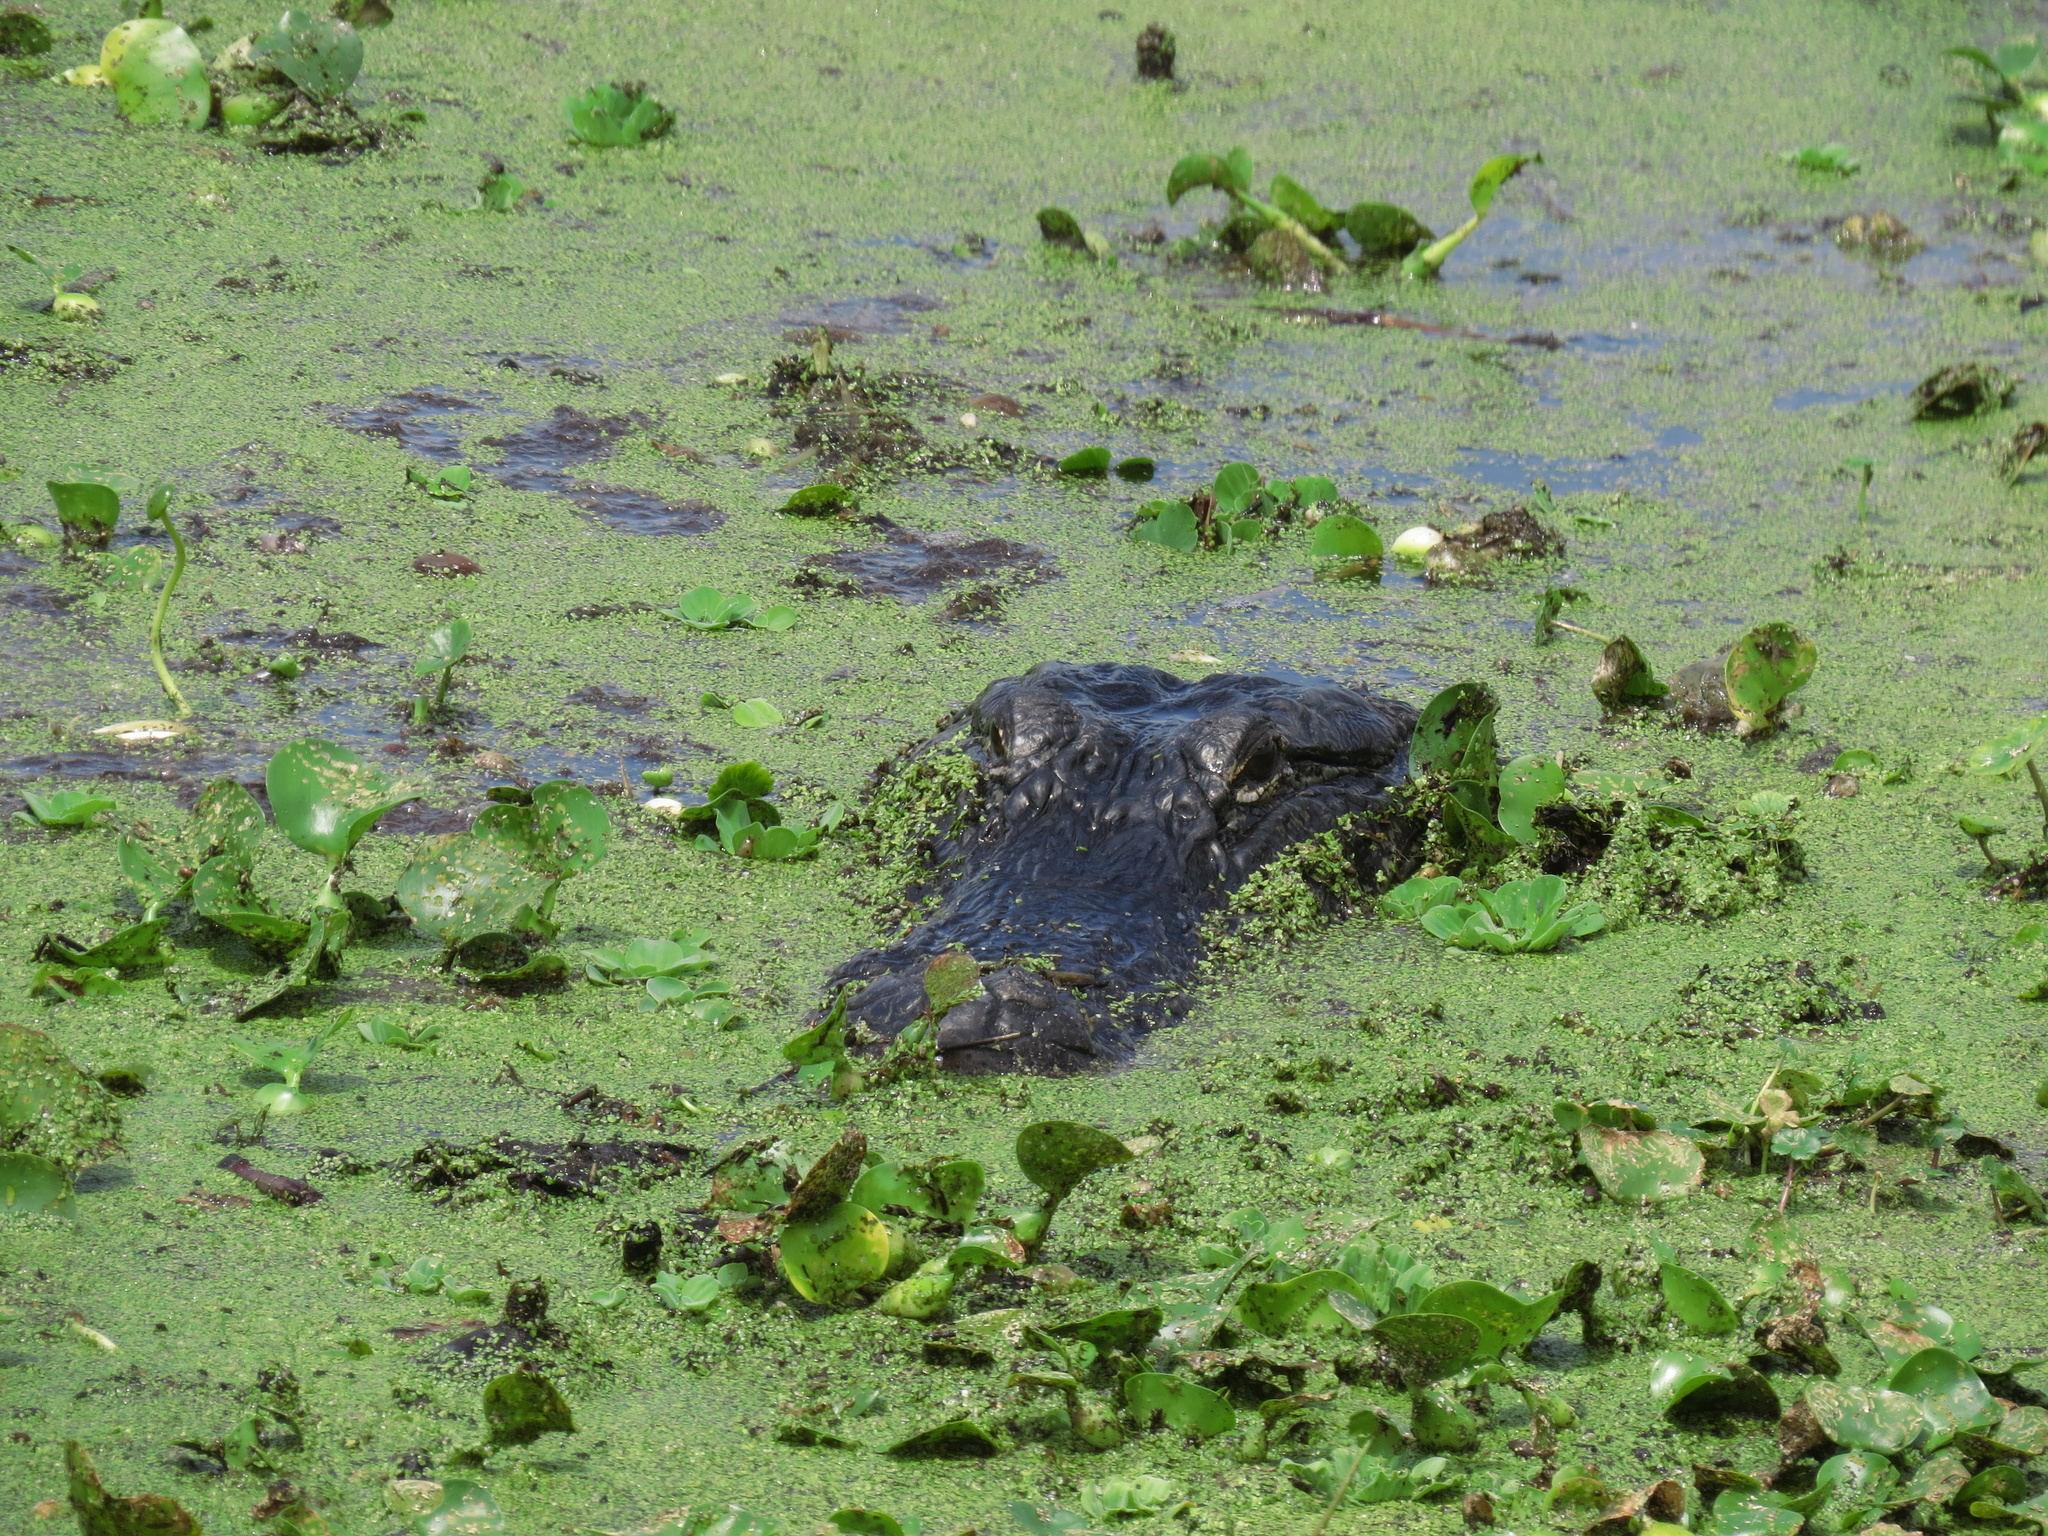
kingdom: Animalia
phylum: Chordata
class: Crocodylia
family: Alligatoridae
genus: Alligator
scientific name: Alligator mississippiensis
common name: American alligator
